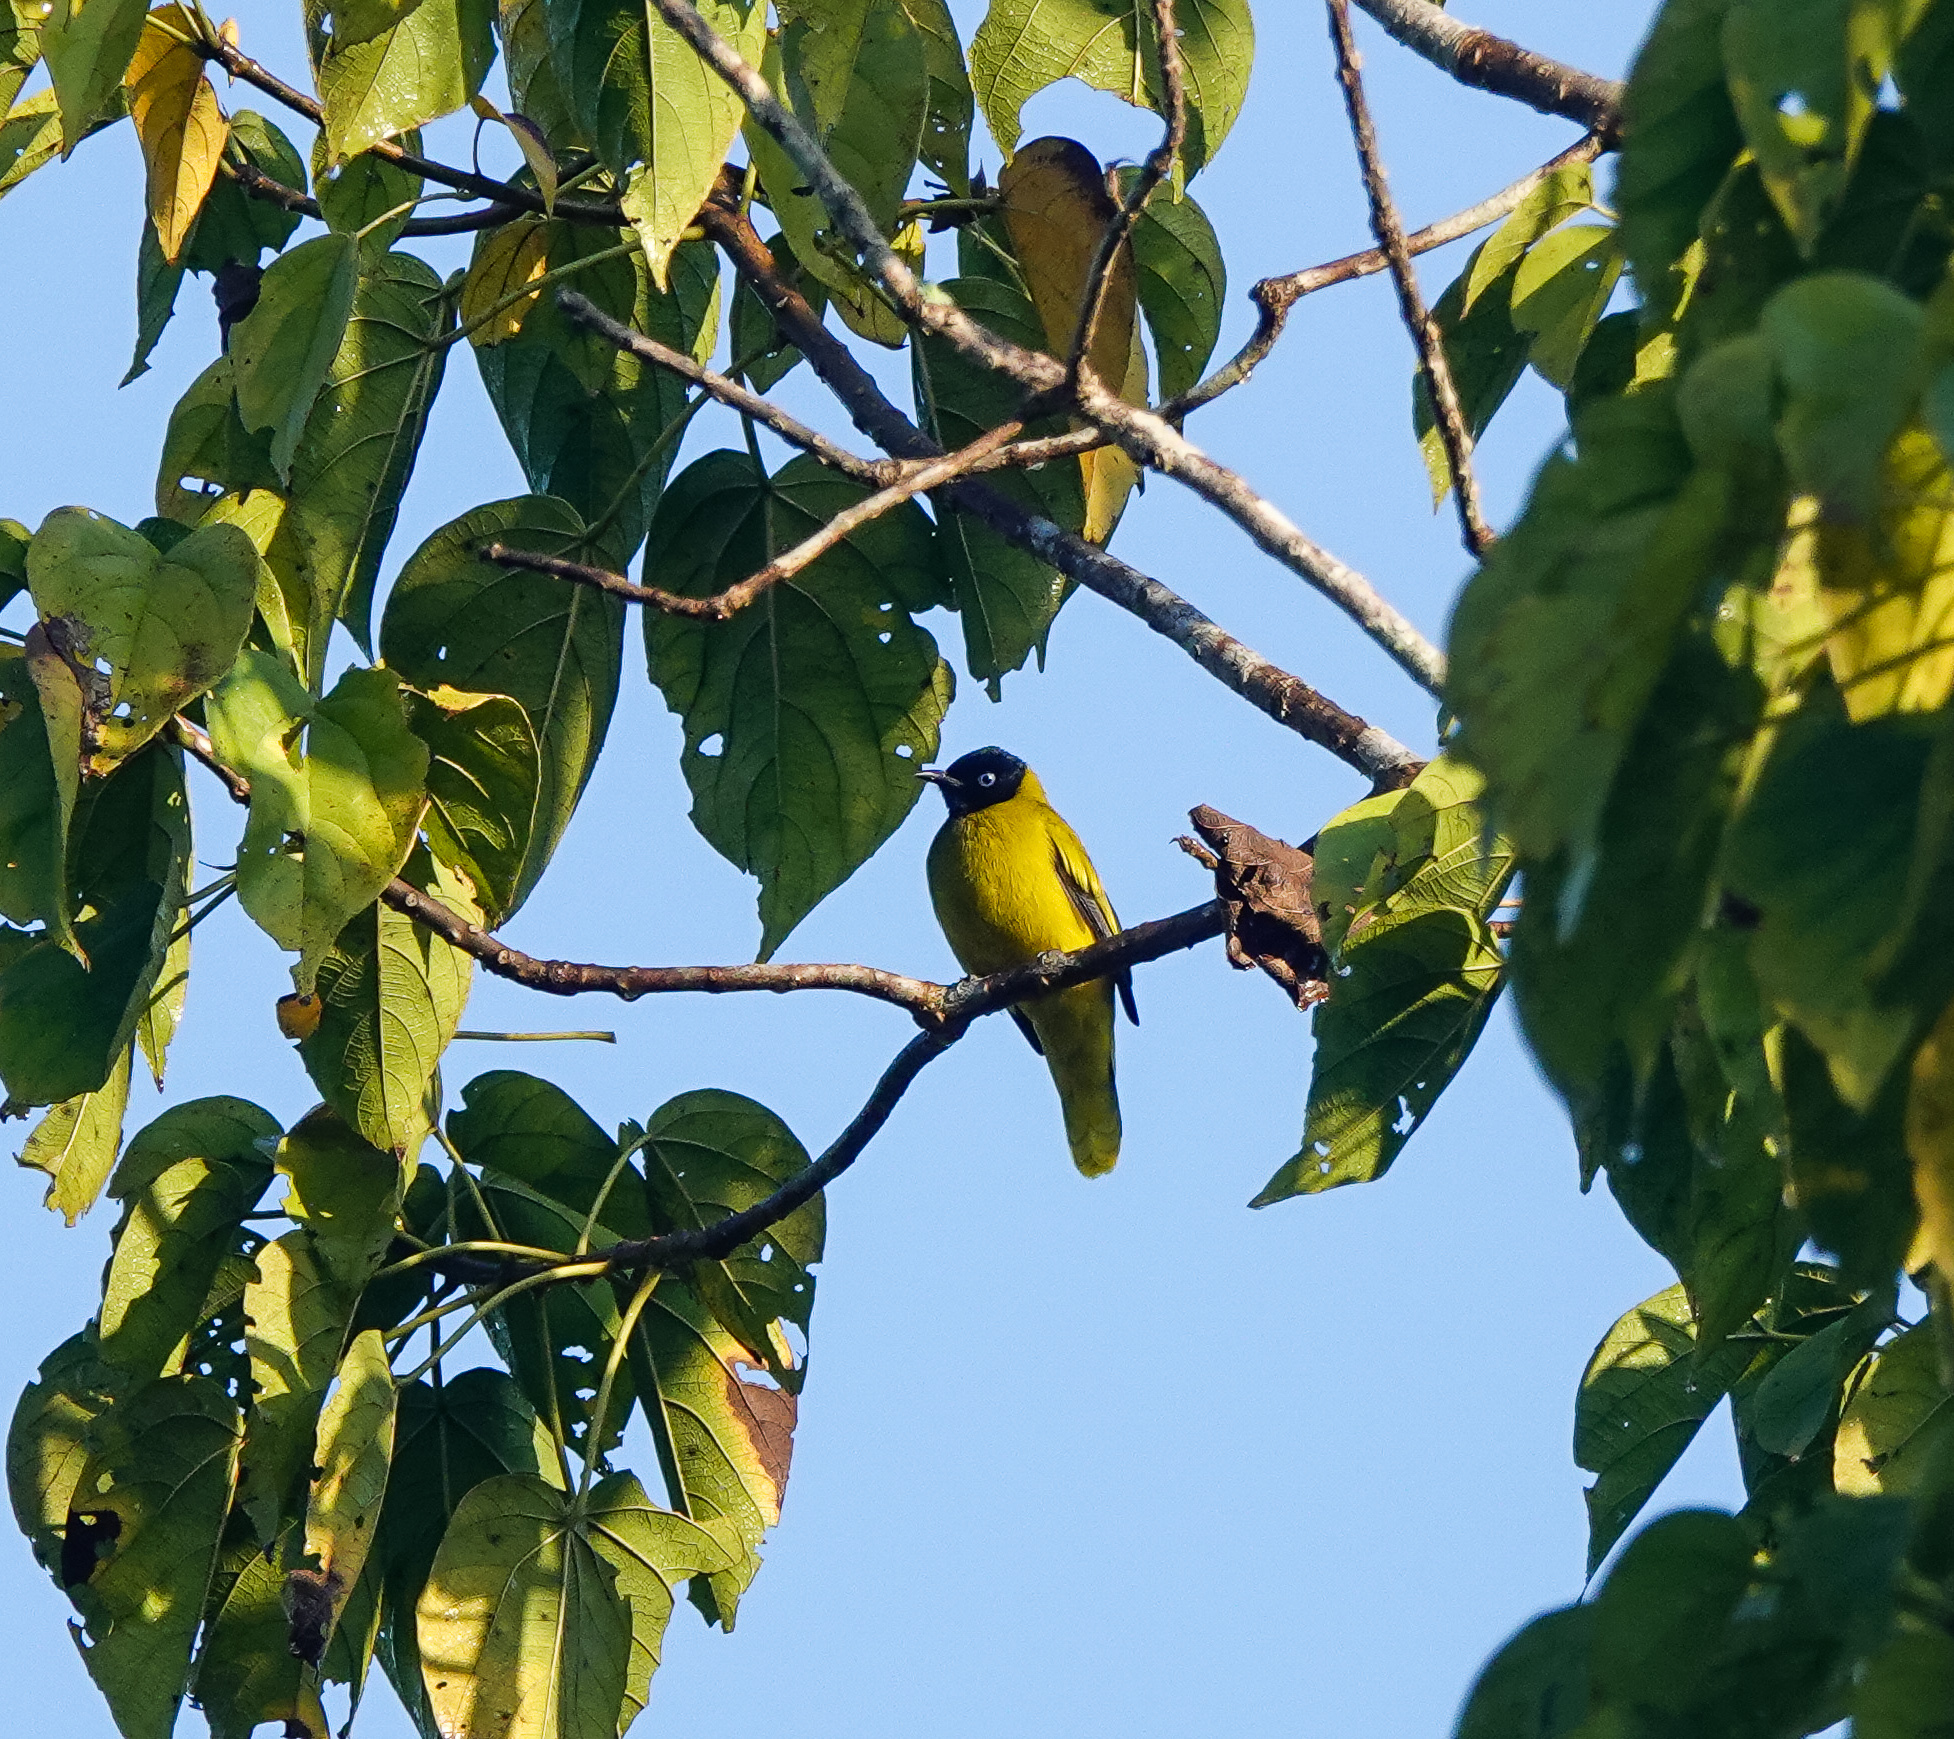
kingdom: Animalia
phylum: Chordata
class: Aves
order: Passeriformes
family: Pycnonotidae
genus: Microtarsus
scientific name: Microtarsus
